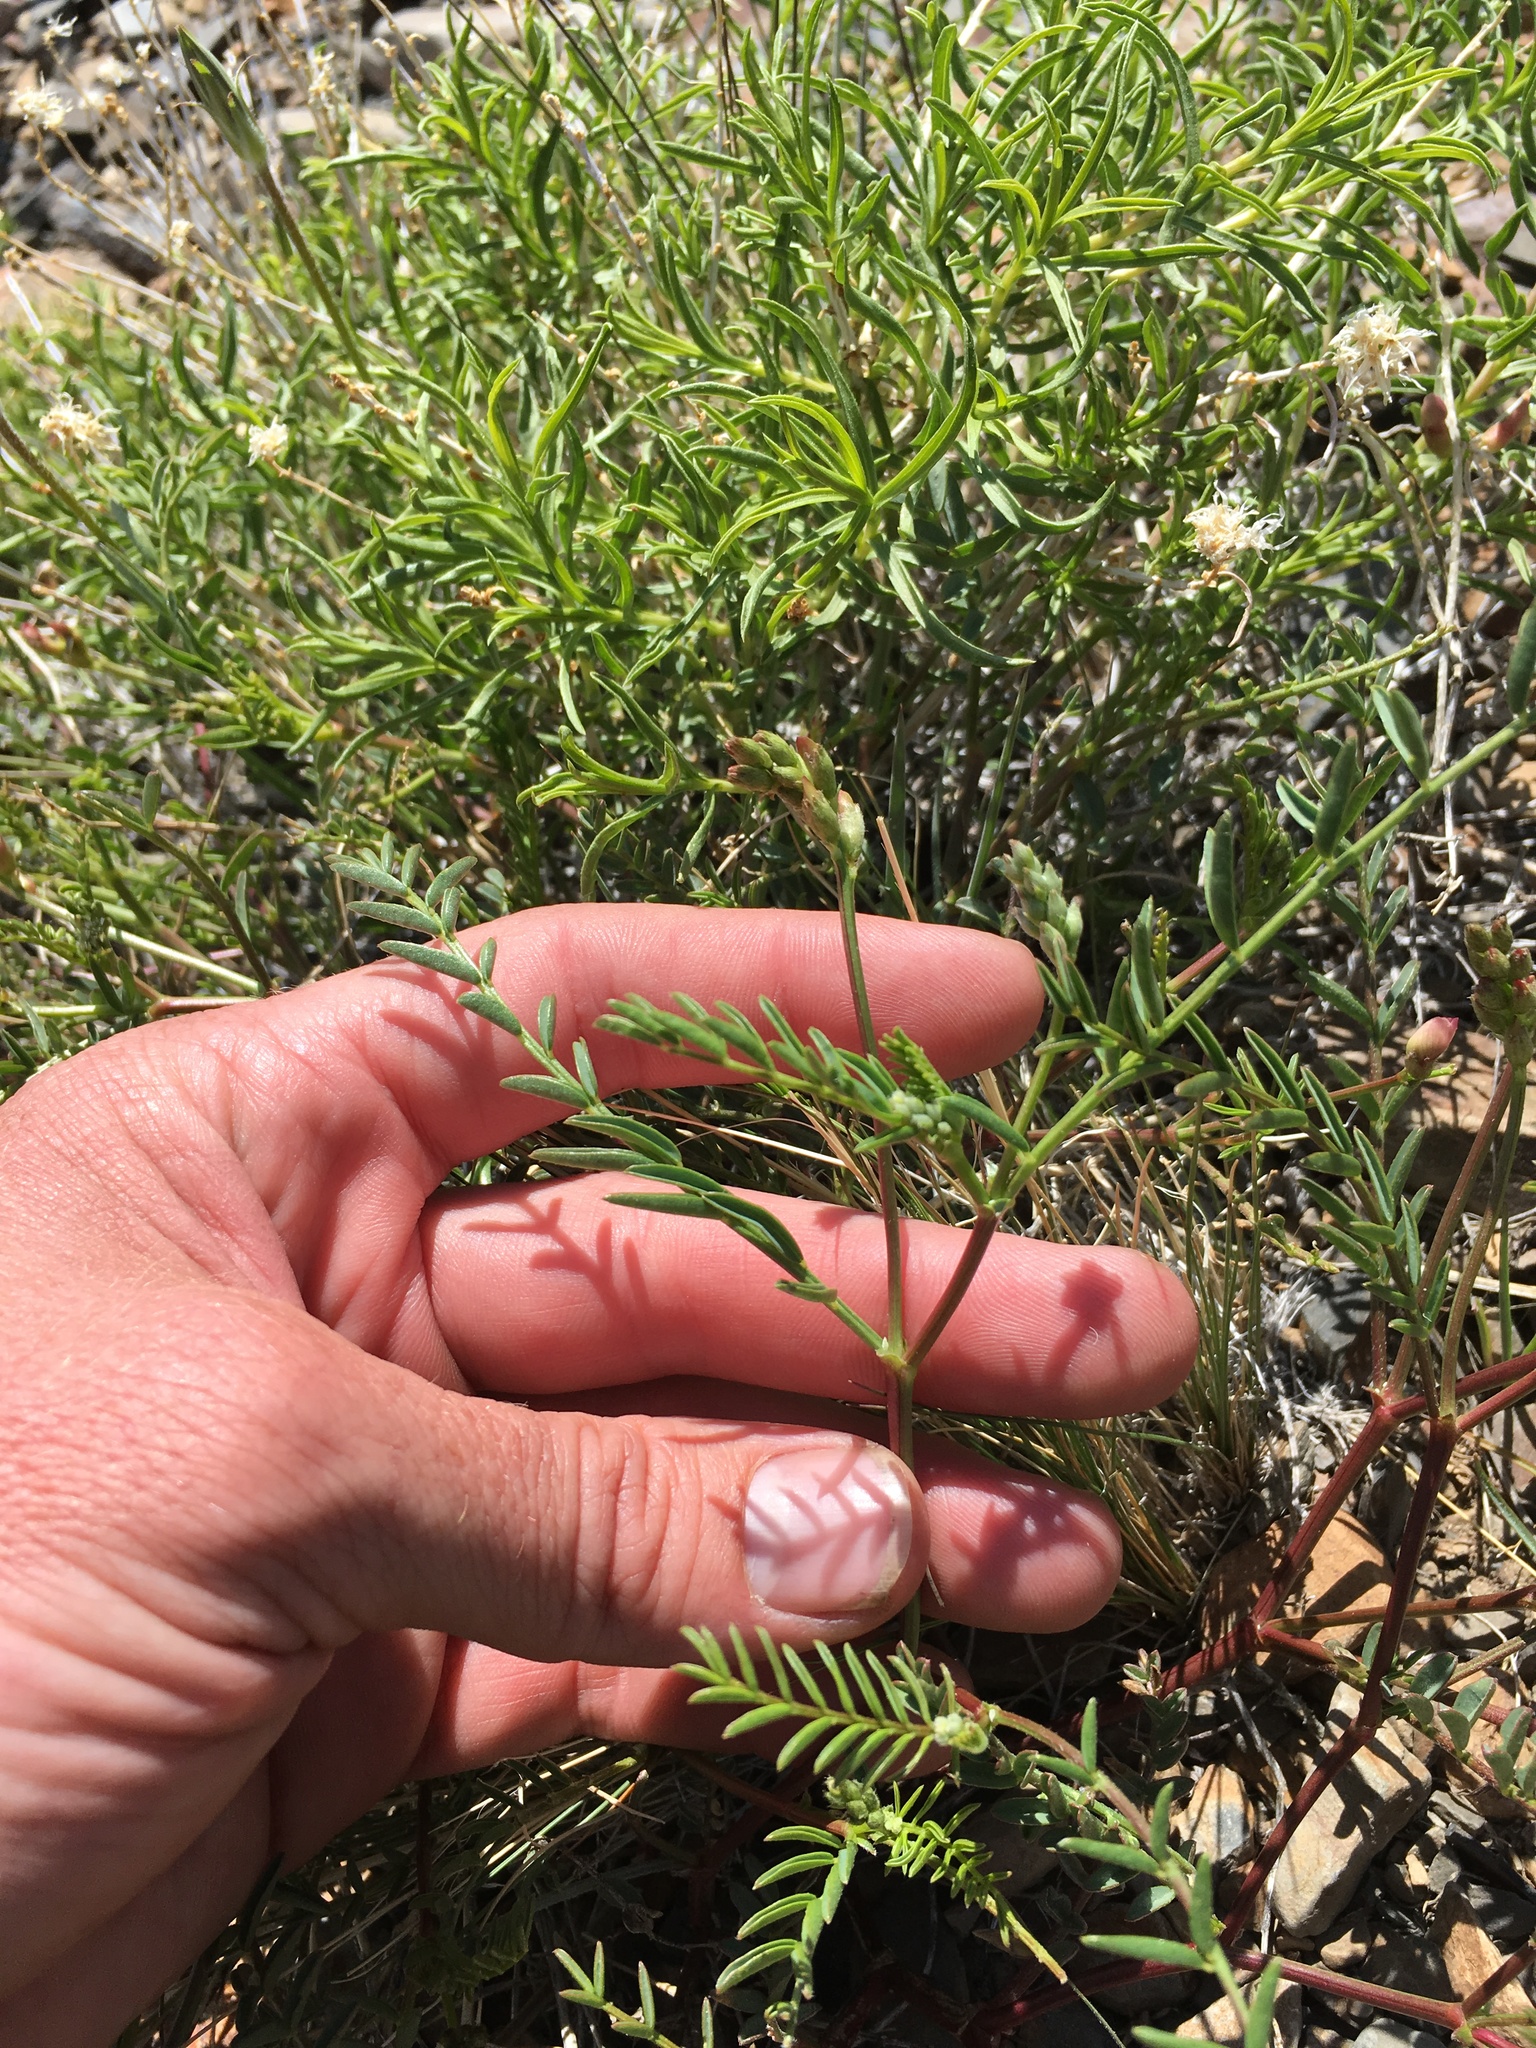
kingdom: Plantae
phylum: Tracheophyta
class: Magnoliopsida
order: Fabales
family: Fabaceae
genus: Astragalus
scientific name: Astragalus whitneyi
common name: Balloonpod milkvetch
